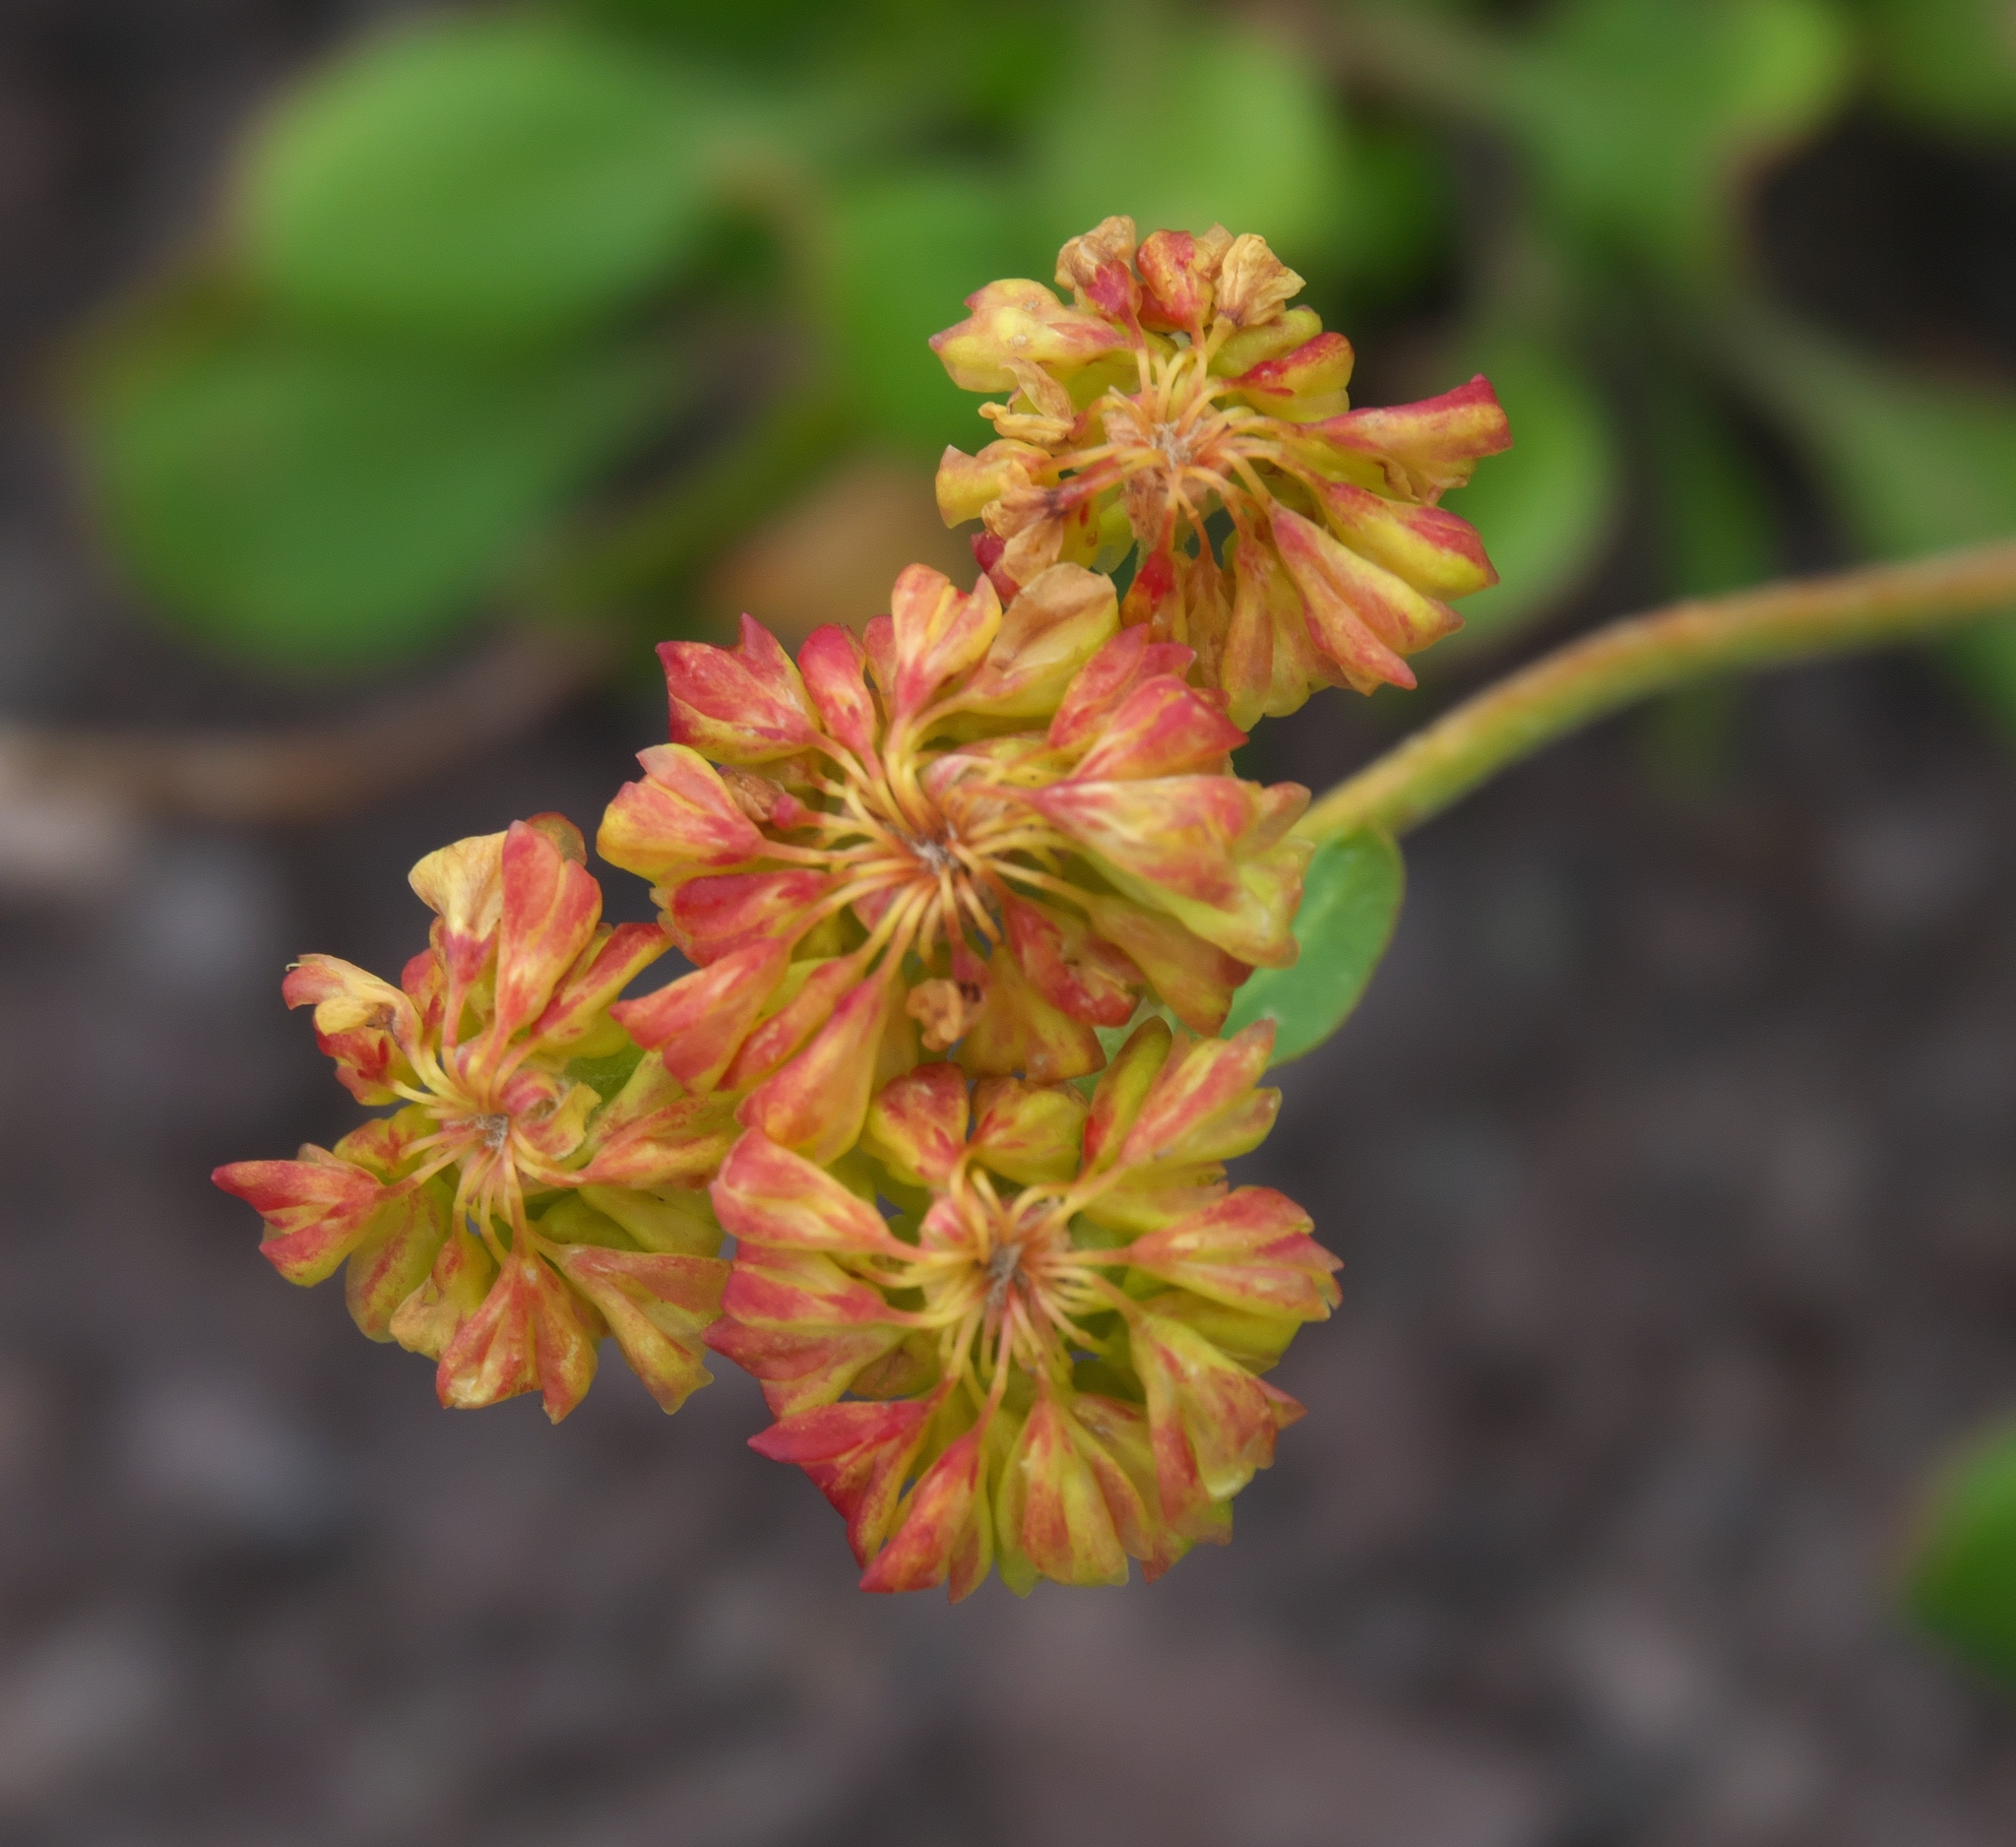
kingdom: Plantae
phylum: Tracheophyta
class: Magnoliopsida
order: Caryophyllales
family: Polygonaceae
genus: Eriogonum
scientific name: Eriogonum umbellatum
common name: Sulfur-buckwheat
